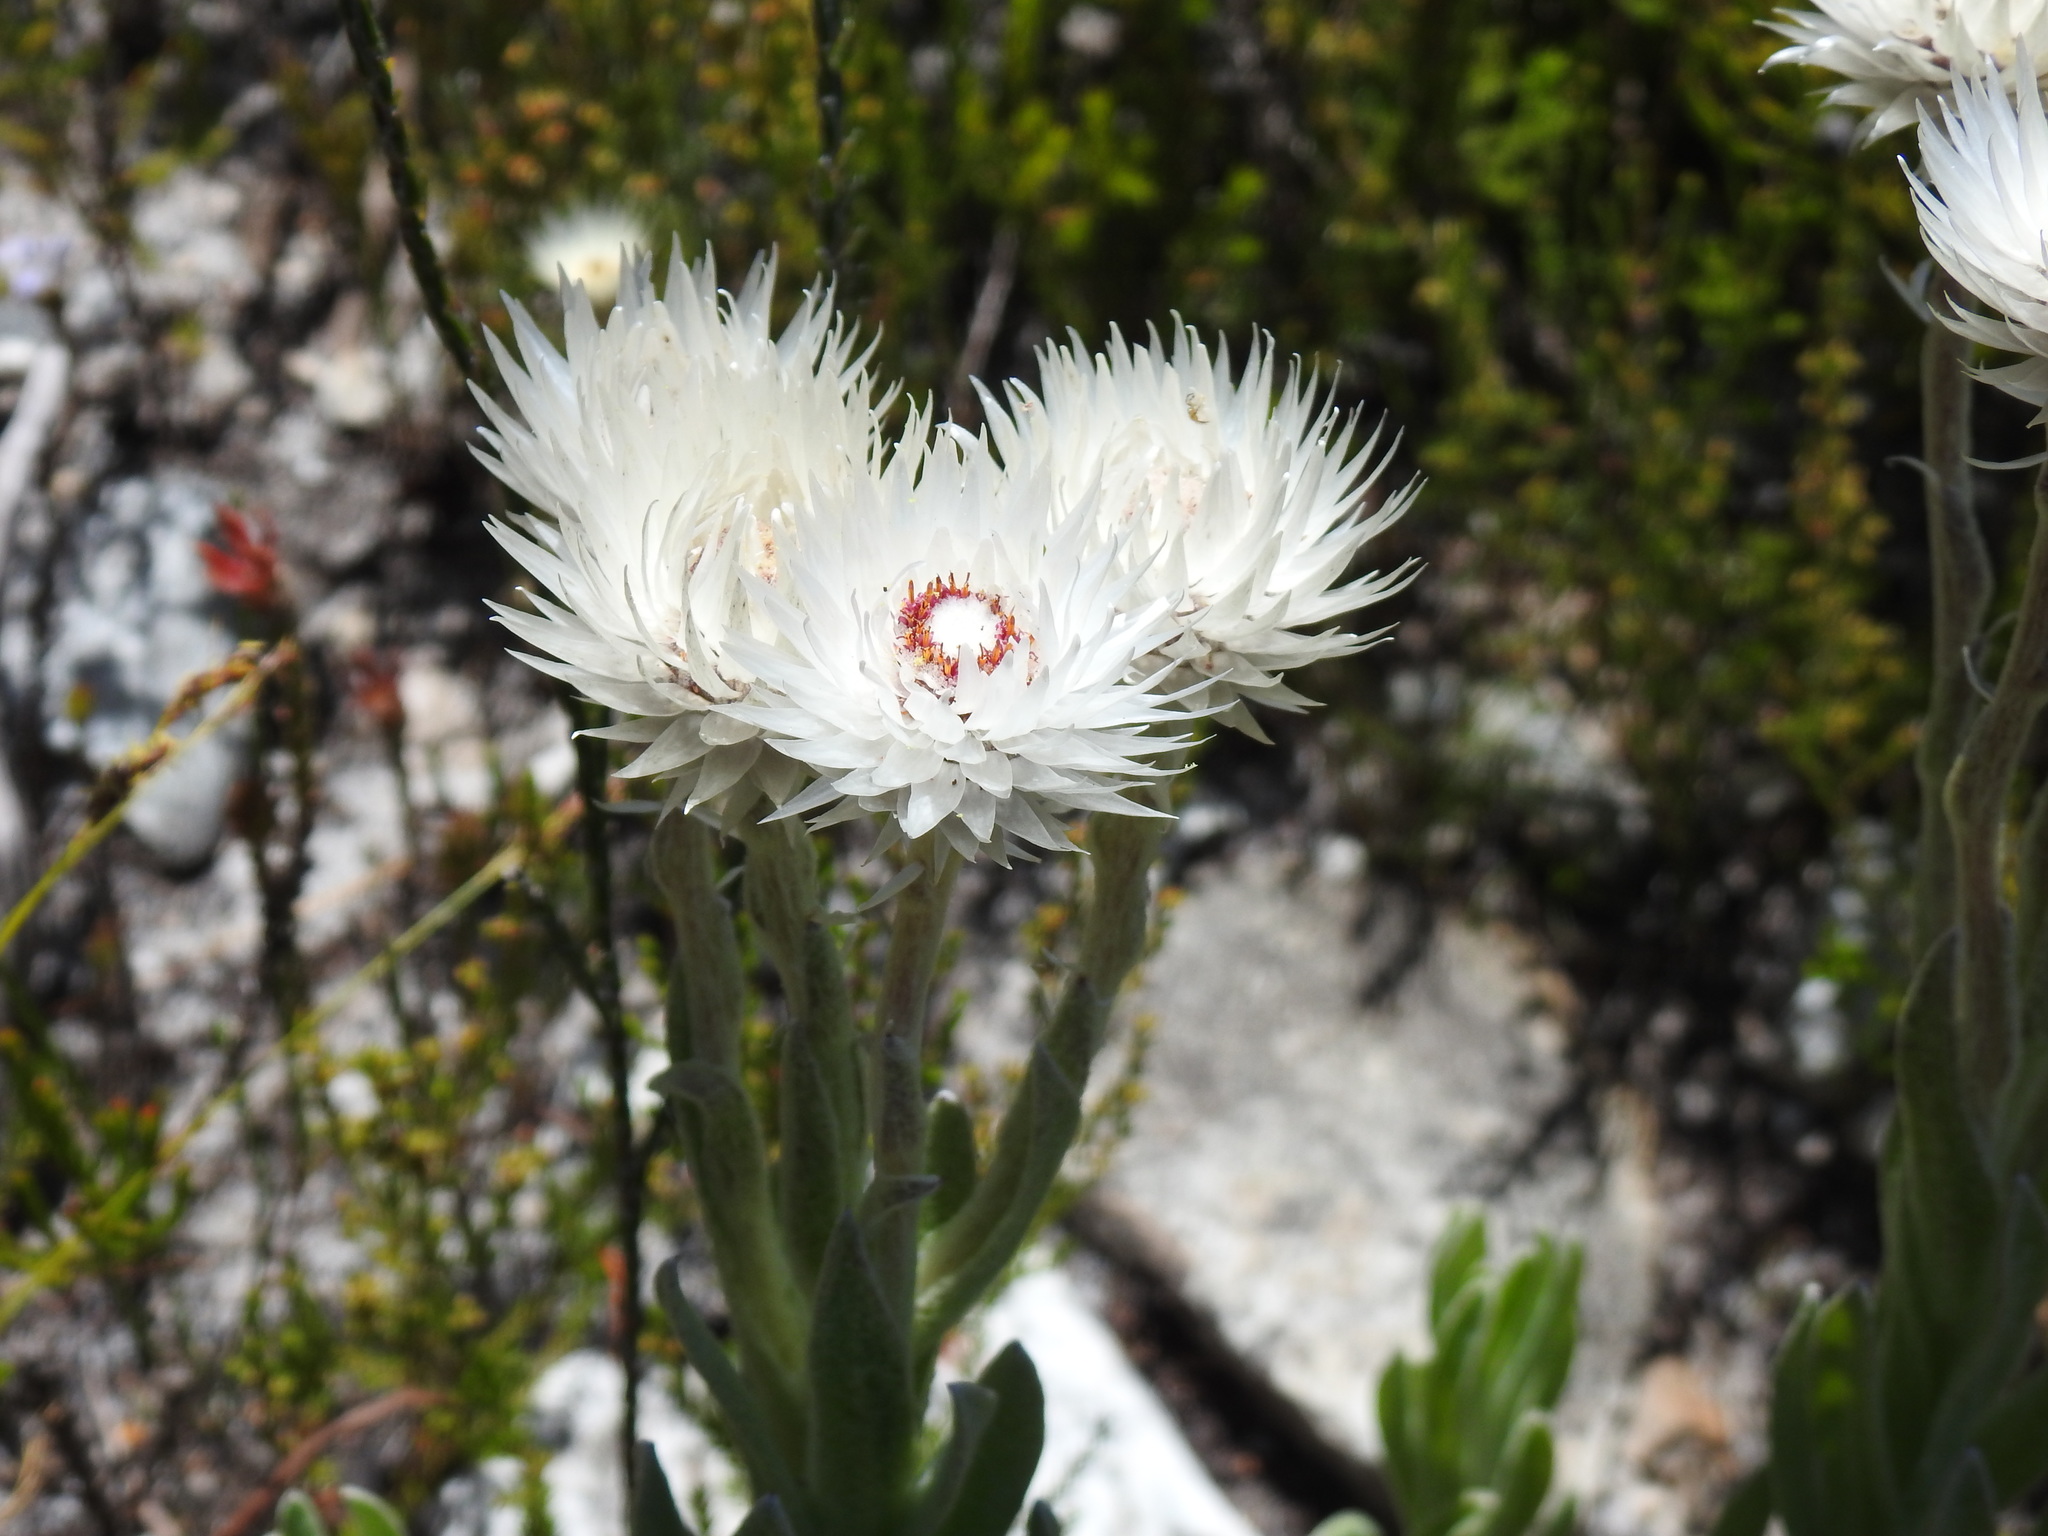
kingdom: Plantae
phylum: Tracheophyta
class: Magnoliopsida
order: Asterales
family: Asteraceae
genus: Syncarpha
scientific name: Syncarpha vestita
